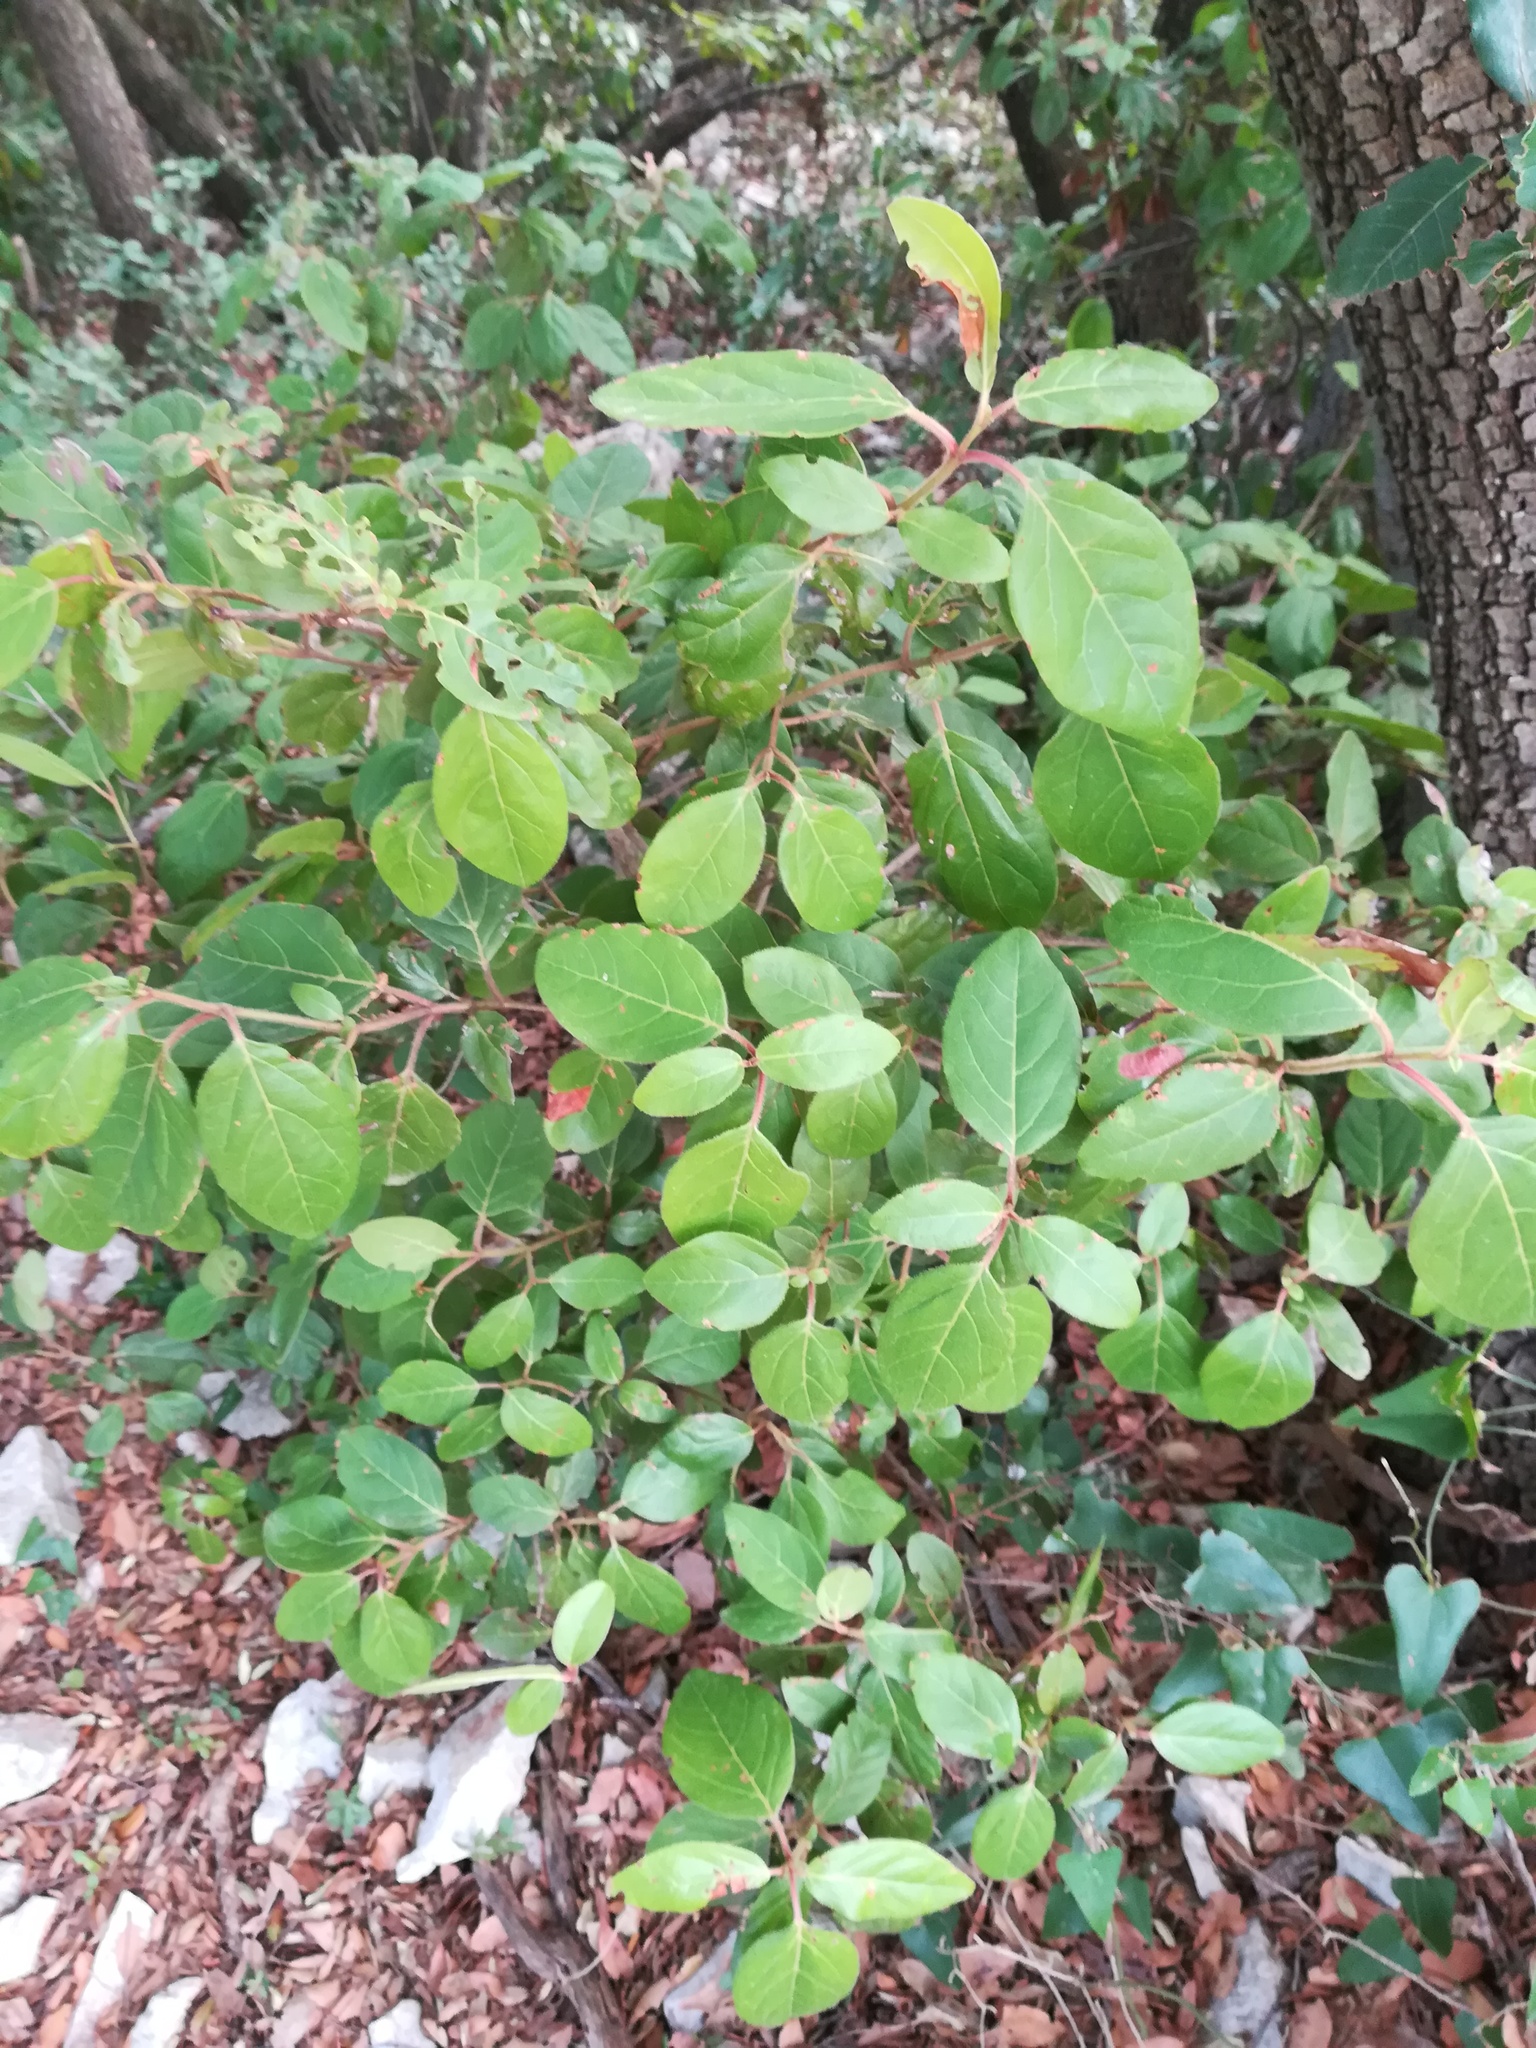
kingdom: Plantae
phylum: Tracheophyta
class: Magnoliopsida
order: Dipsacales
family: Viburnaceae
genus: Viburnum
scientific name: Viburnum tinus
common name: Laurustinus
